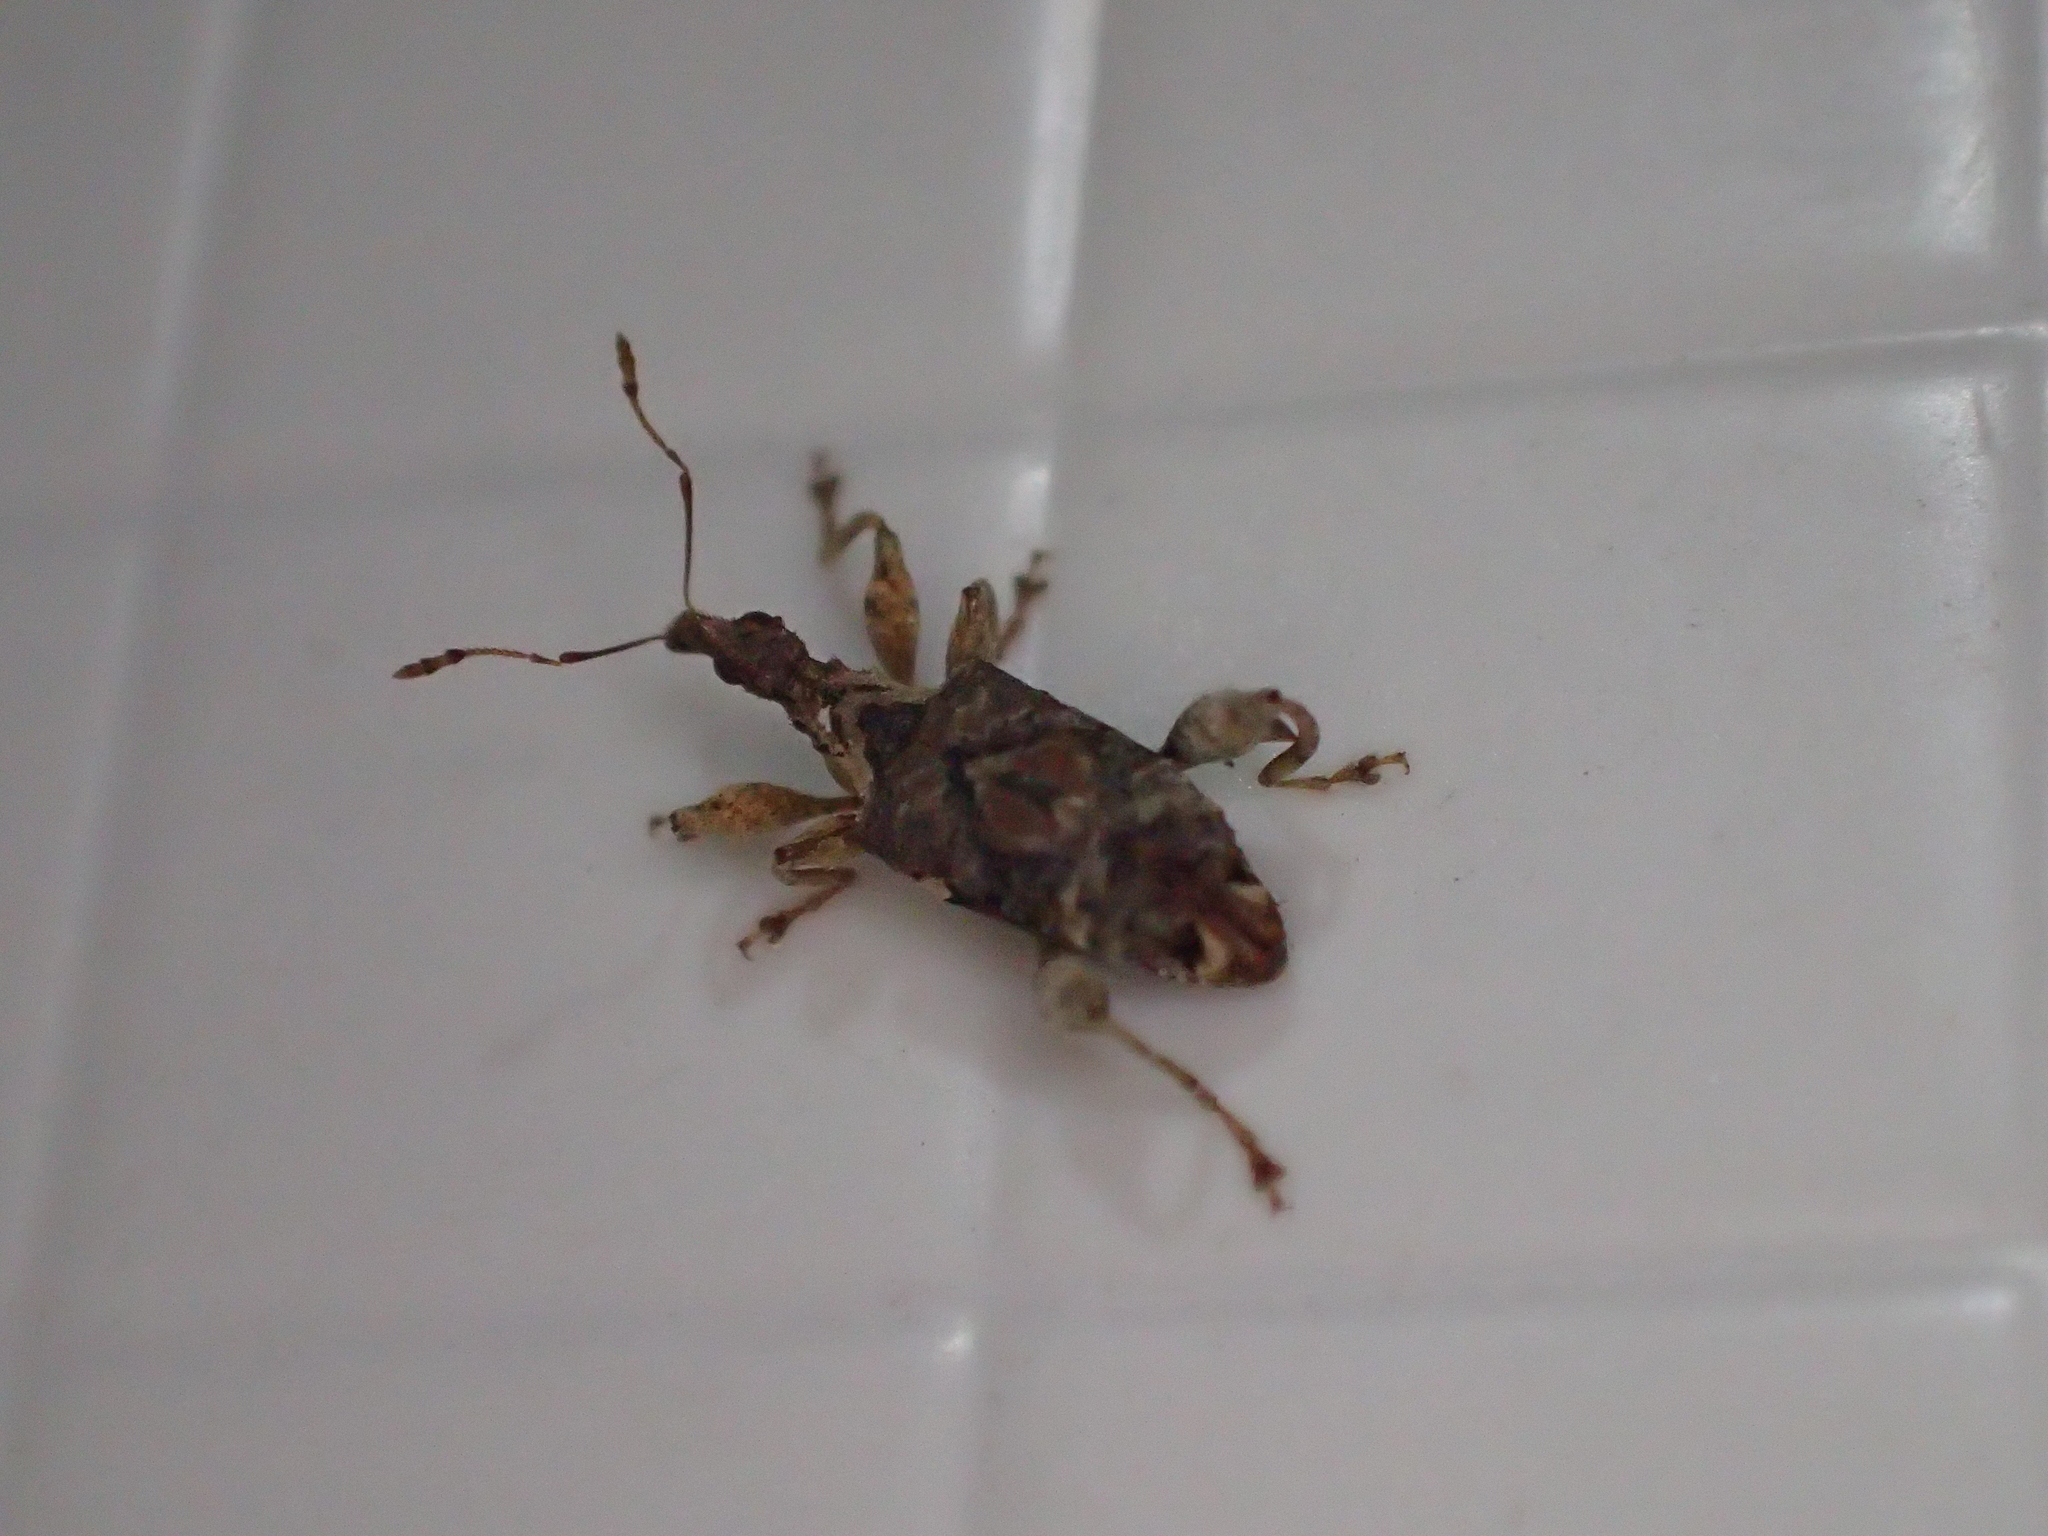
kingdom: Animalia
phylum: Arthropoda
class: Insecta
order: Coleoptera
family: Curculionidae
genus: Stephanorhynchus
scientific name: Stephanorhynchus curvipes
